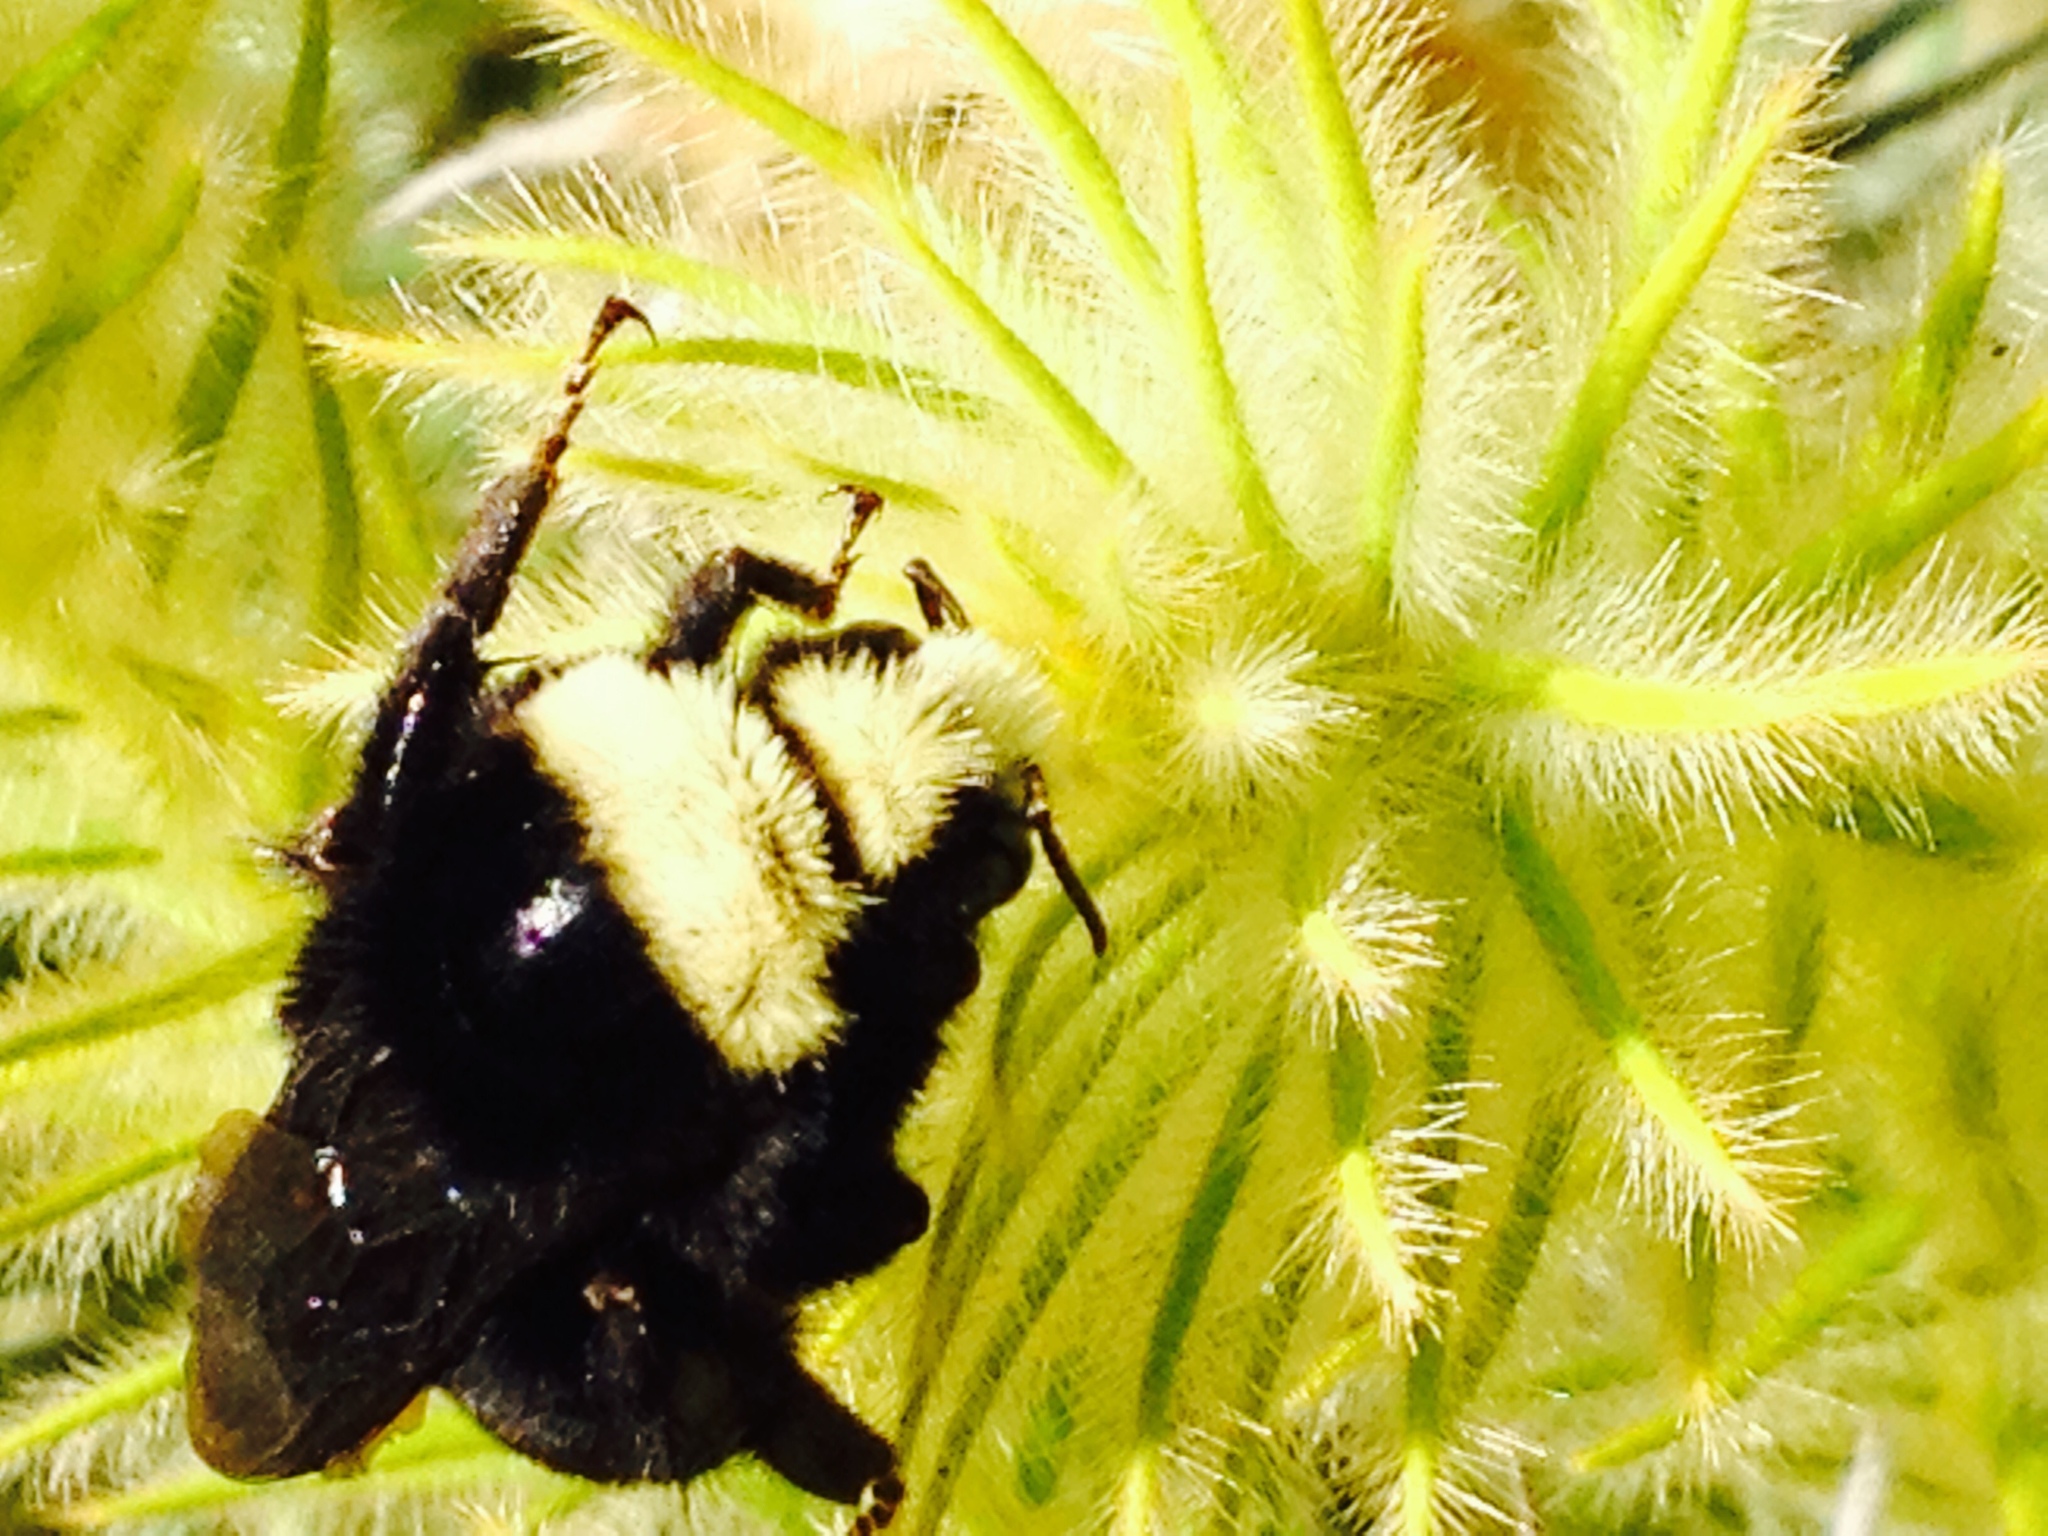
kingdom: Animalia
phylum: Arthropoda
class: Insecta
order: Hymenoptera
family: Apidae
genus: Pyrobombus
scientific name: Pyrobombus
